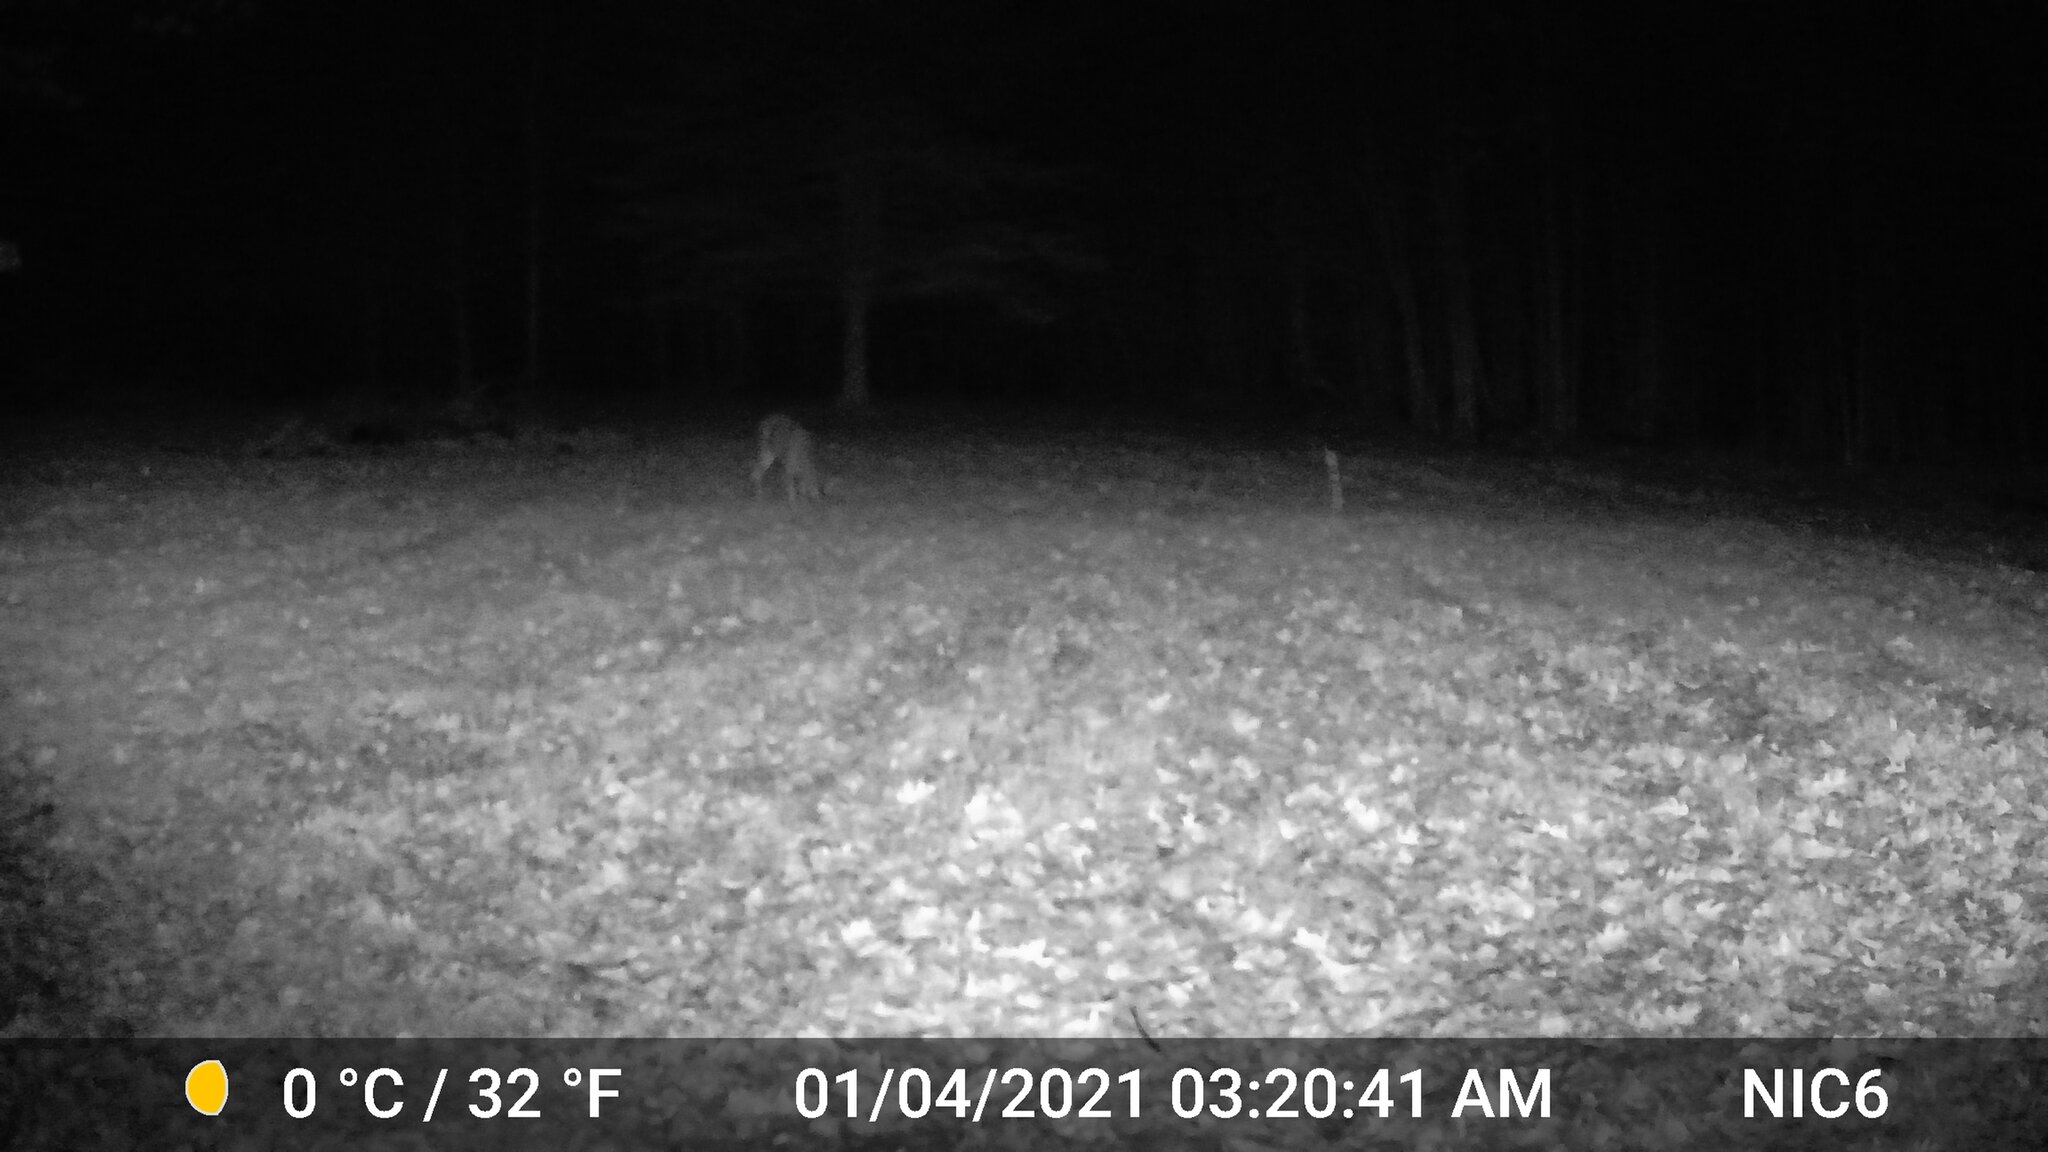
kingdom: Animalia
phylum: Chordata
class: Mammalia
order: Artiodactyla
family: Cervidae
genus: Odocoileus
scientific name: Odocoileus virginianus
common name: White-tailed deer
